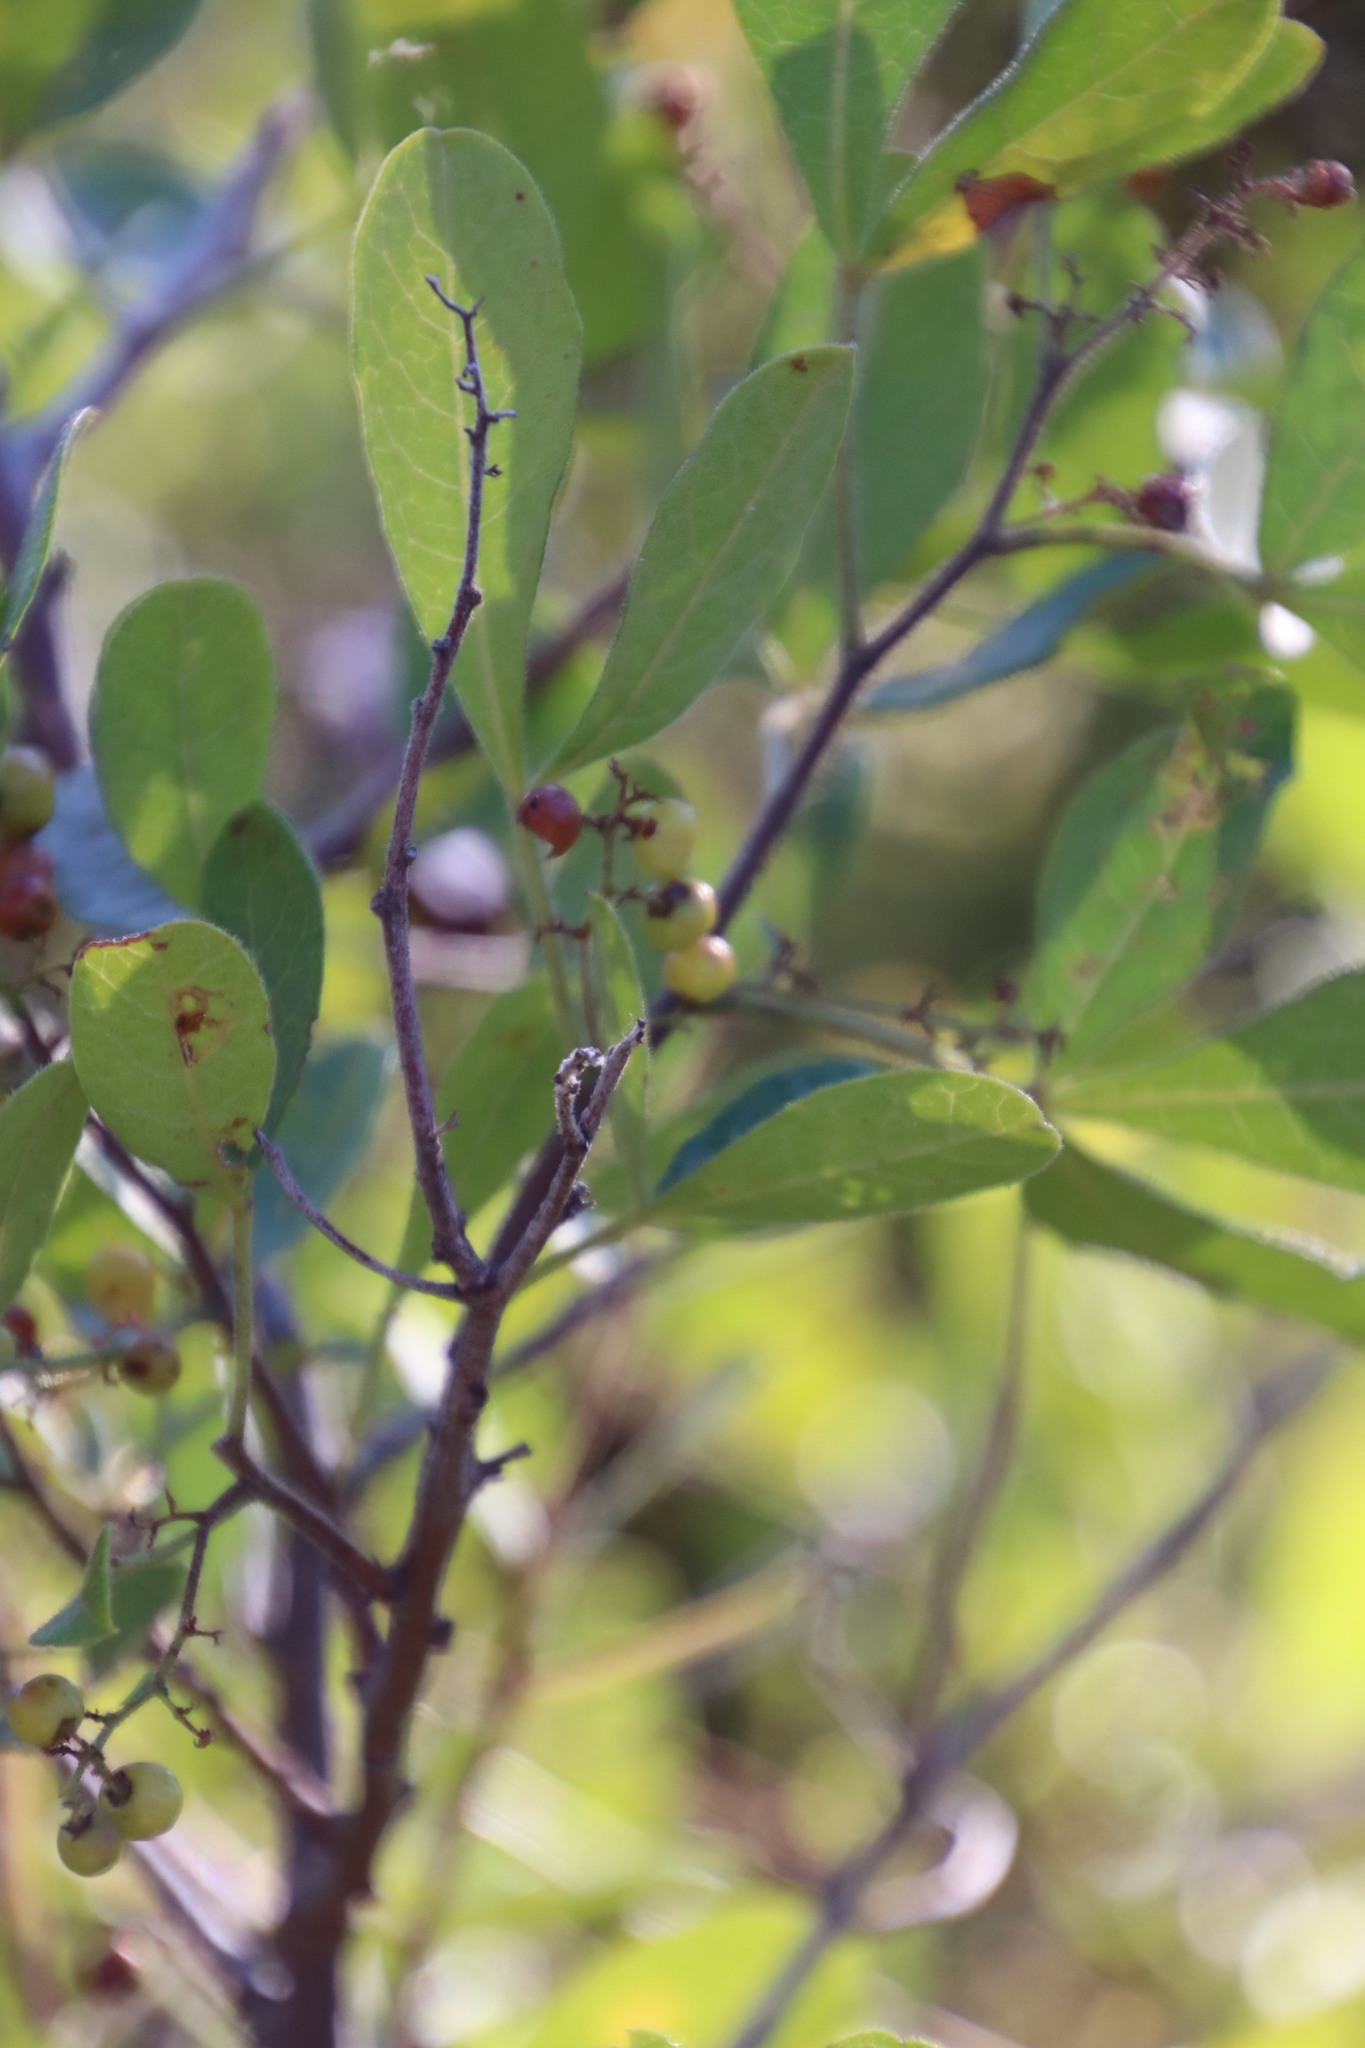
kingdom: Plantae
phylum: Tracheophyta
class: Magnoliopsida
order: Sapindales
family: Anacardiaceae
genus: Searsia
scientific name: Searsia lucida
